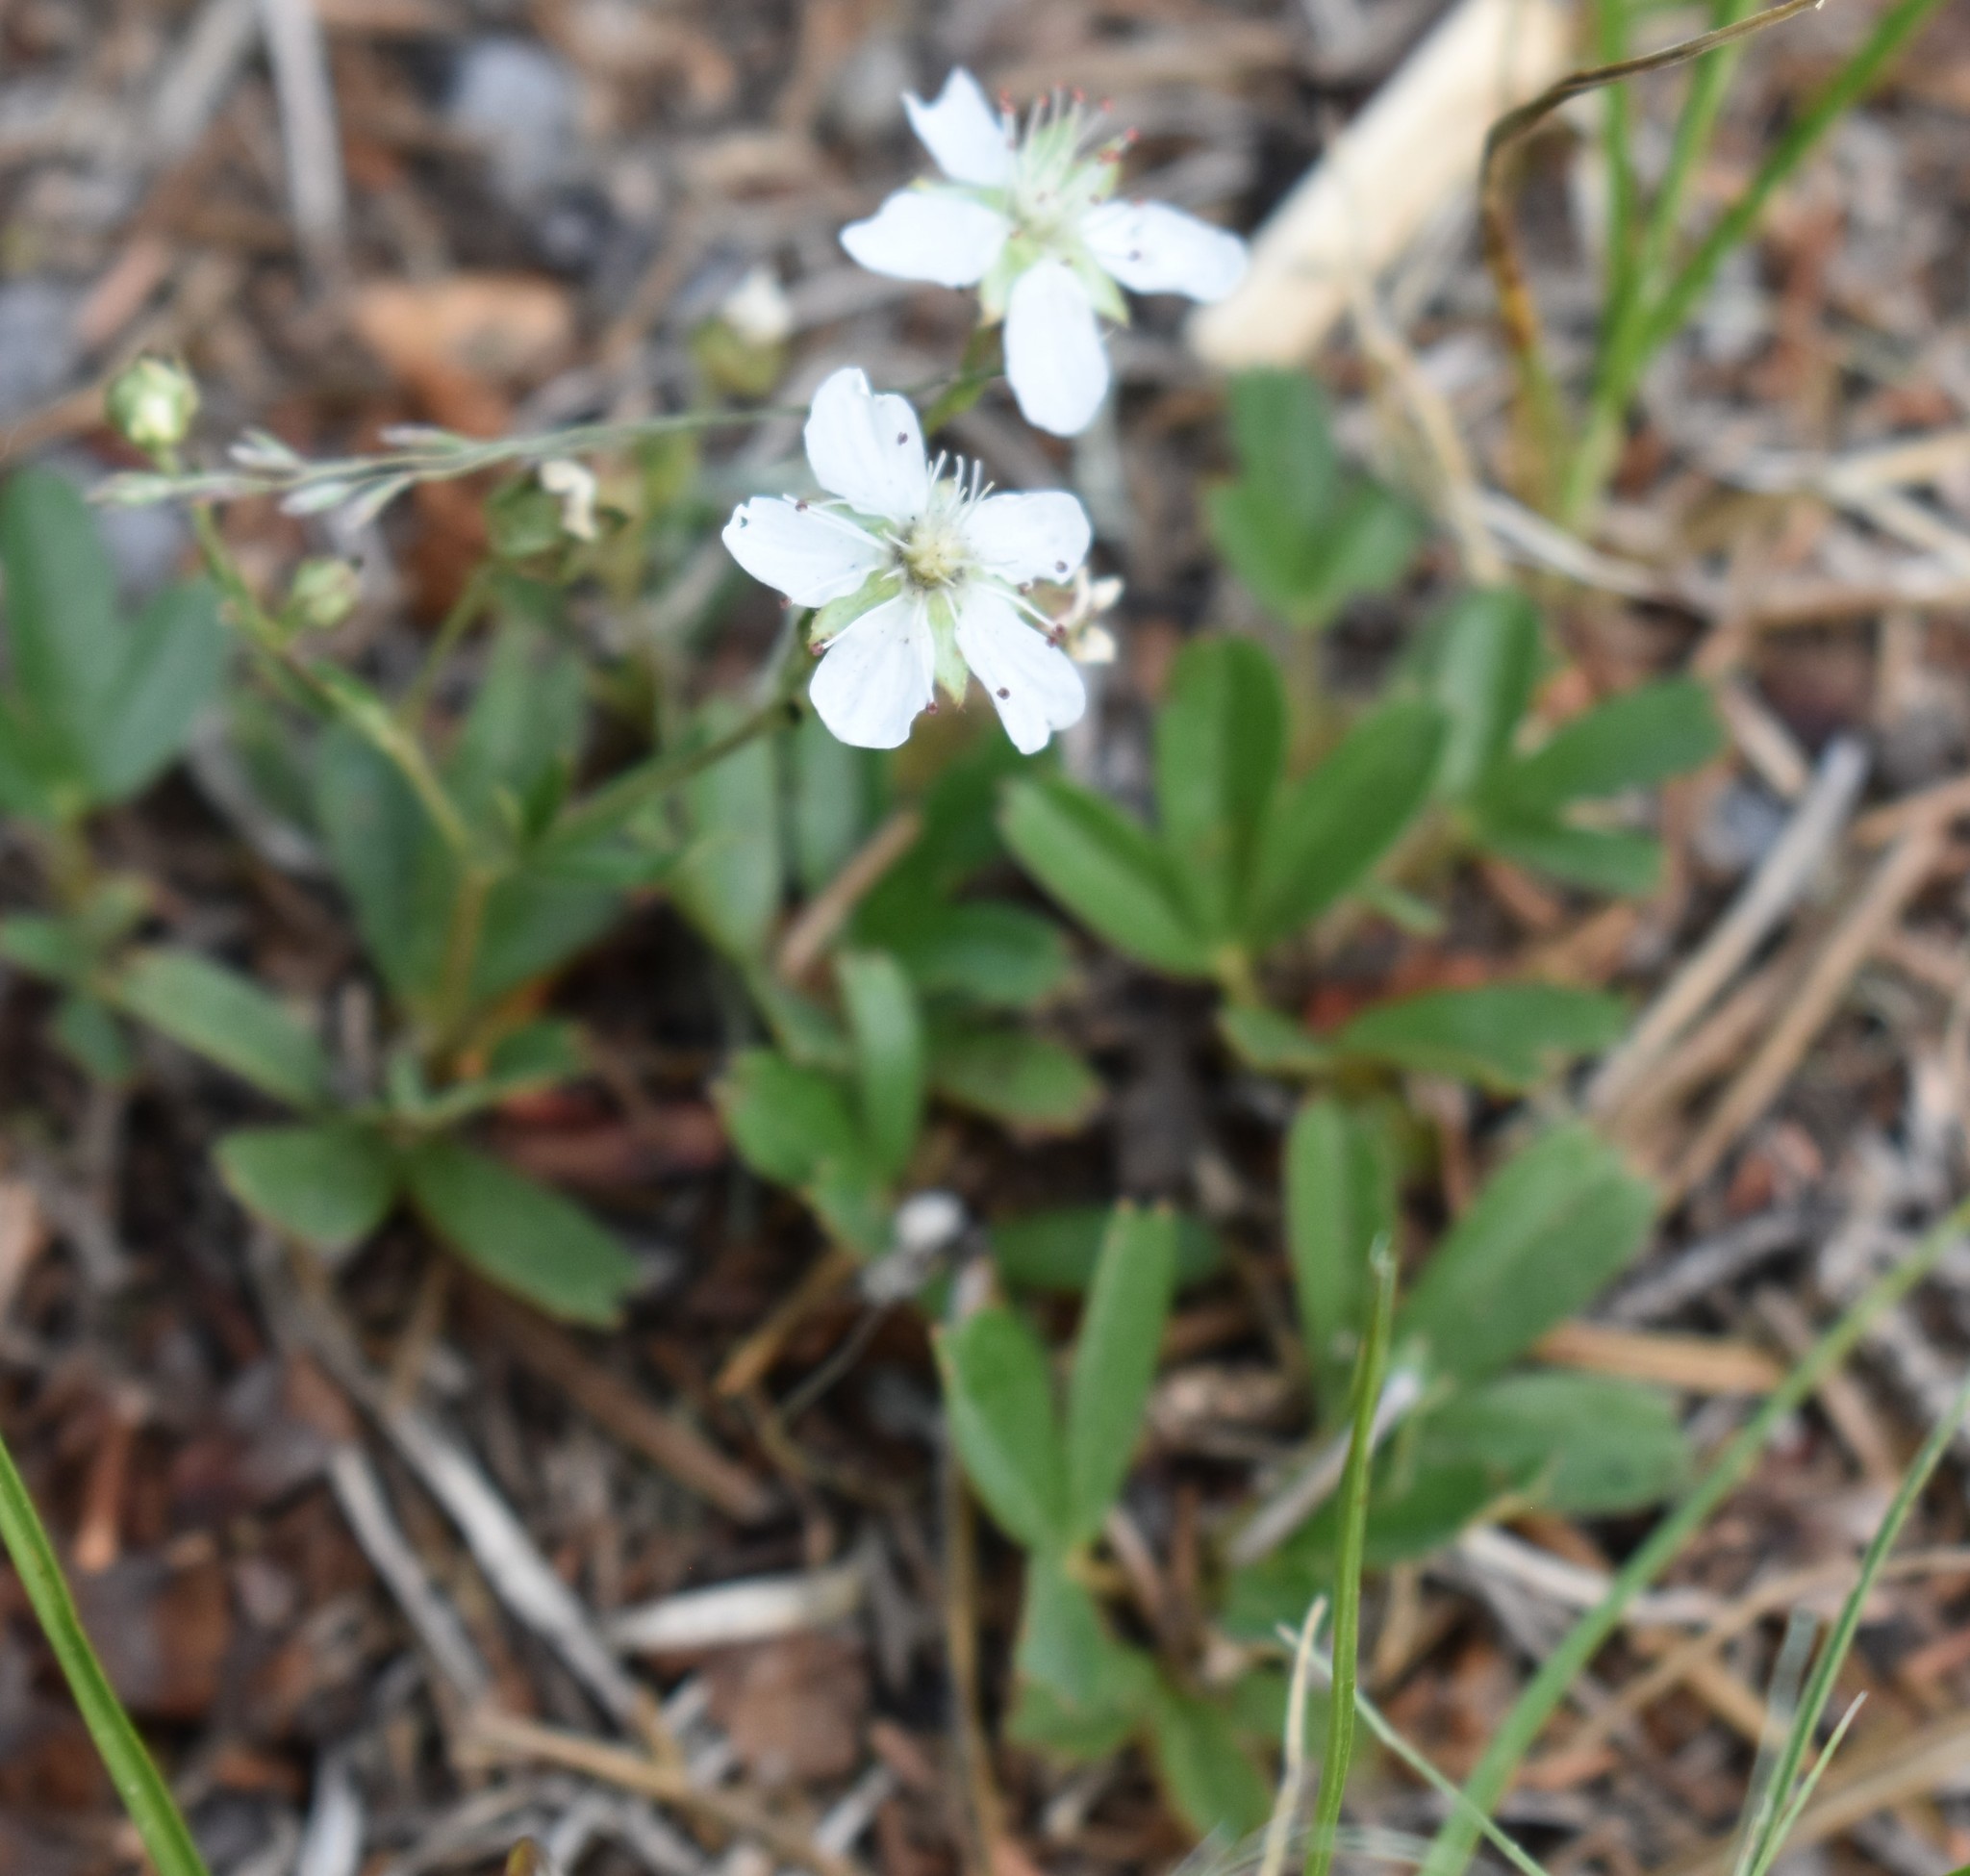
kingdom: Plantae
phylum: Tracheophyta
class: Magnoliopsida
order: Rosales
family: Rosaceae
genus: Sibbaldia
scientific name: Sibbaldia tridentata
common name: Three-toothed cinquefoil
